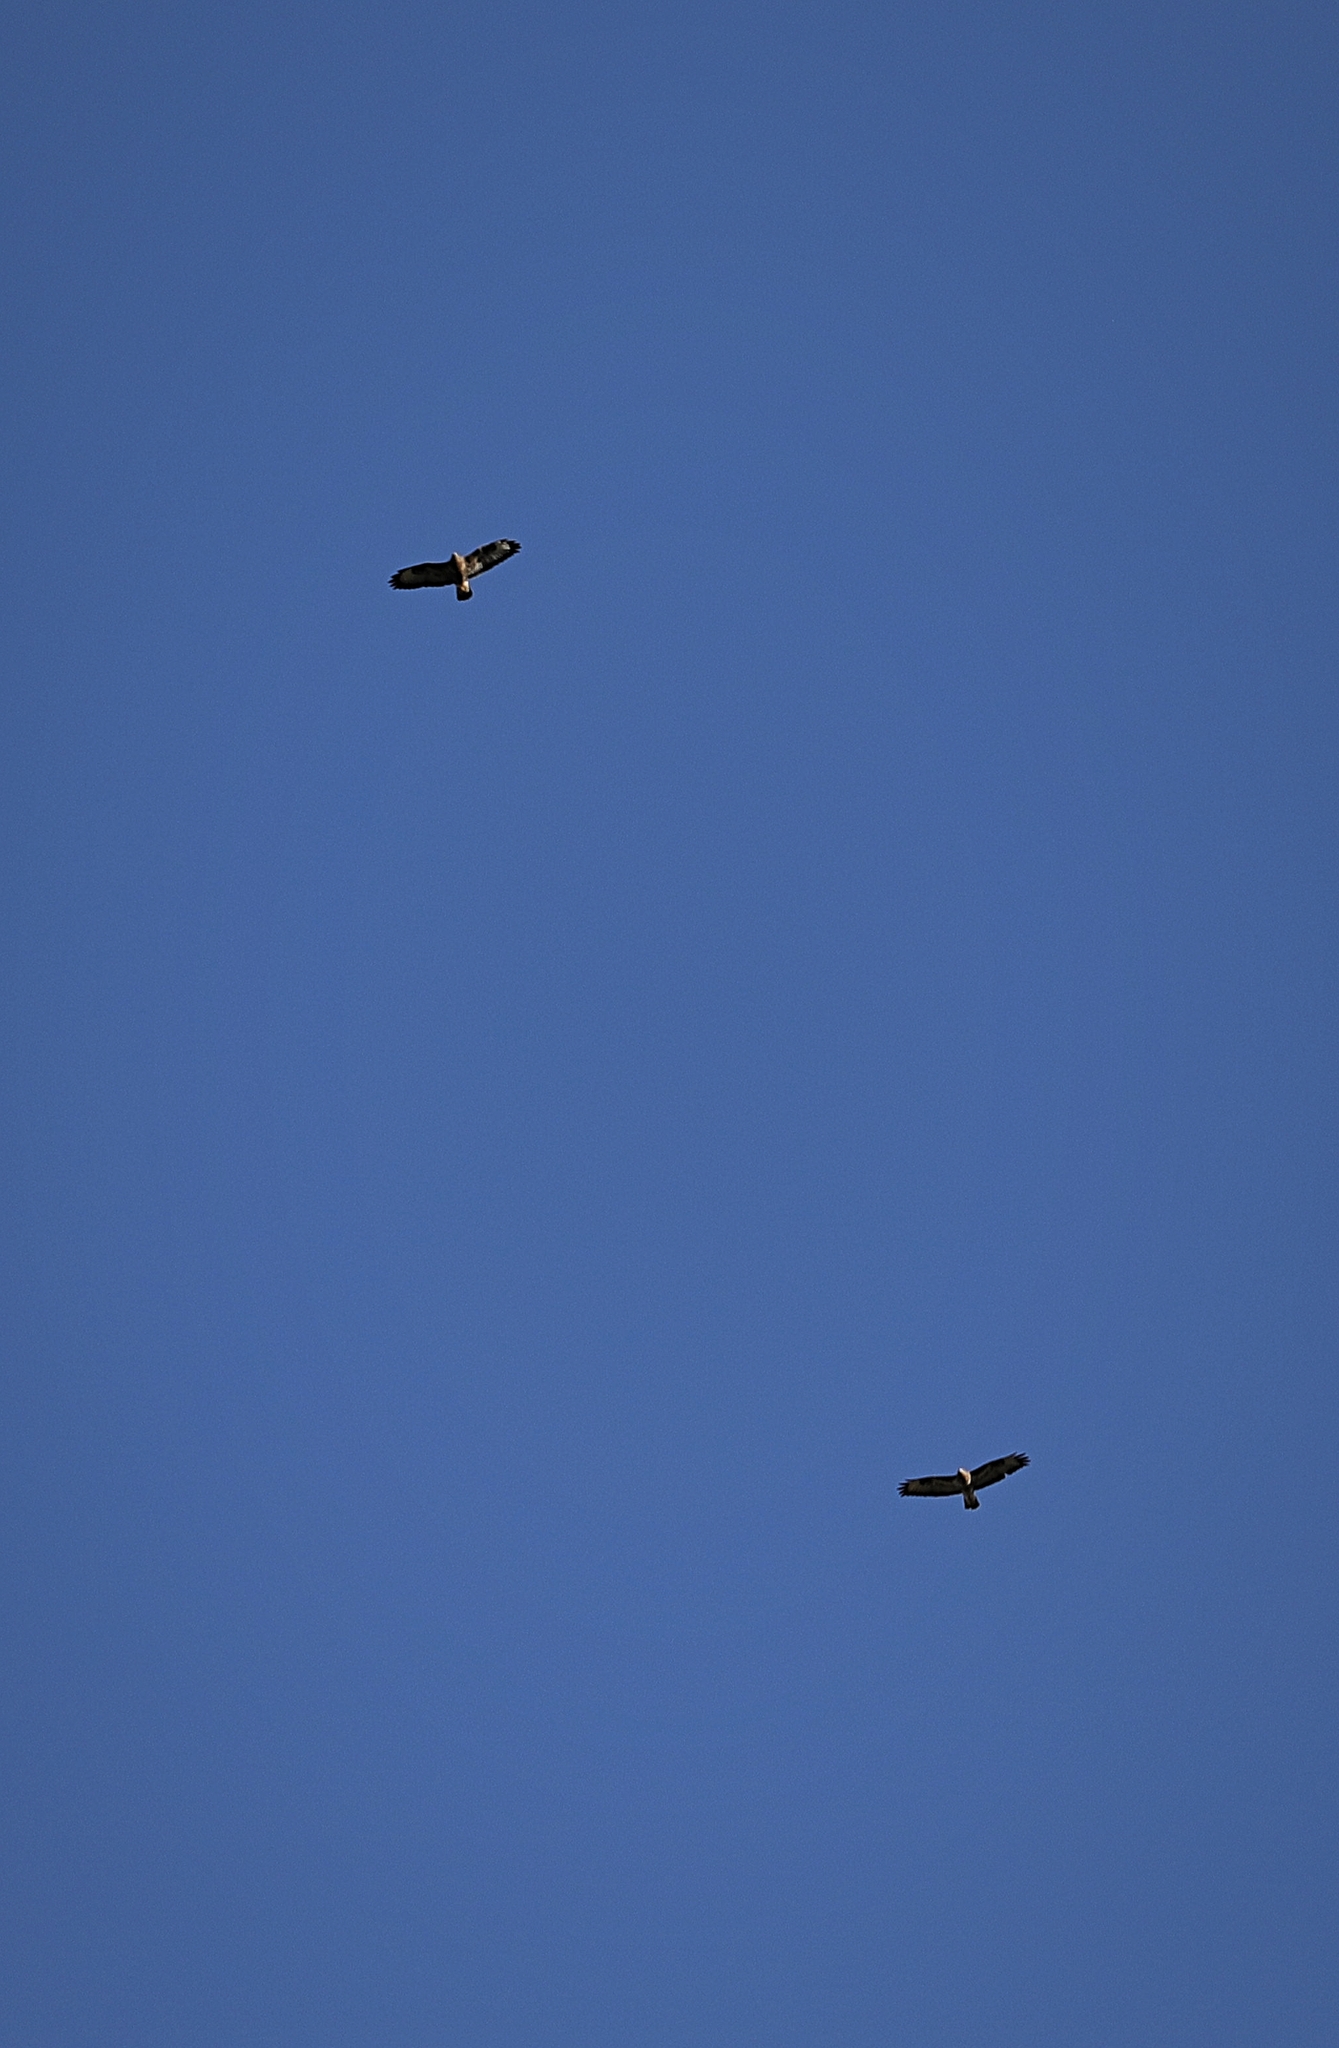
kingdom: Animalia
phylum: Chordata
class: Aves
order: Accipitriformes
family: Accipitridae
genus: Buteo
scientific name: Buteo buteo
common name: Common buzzard
